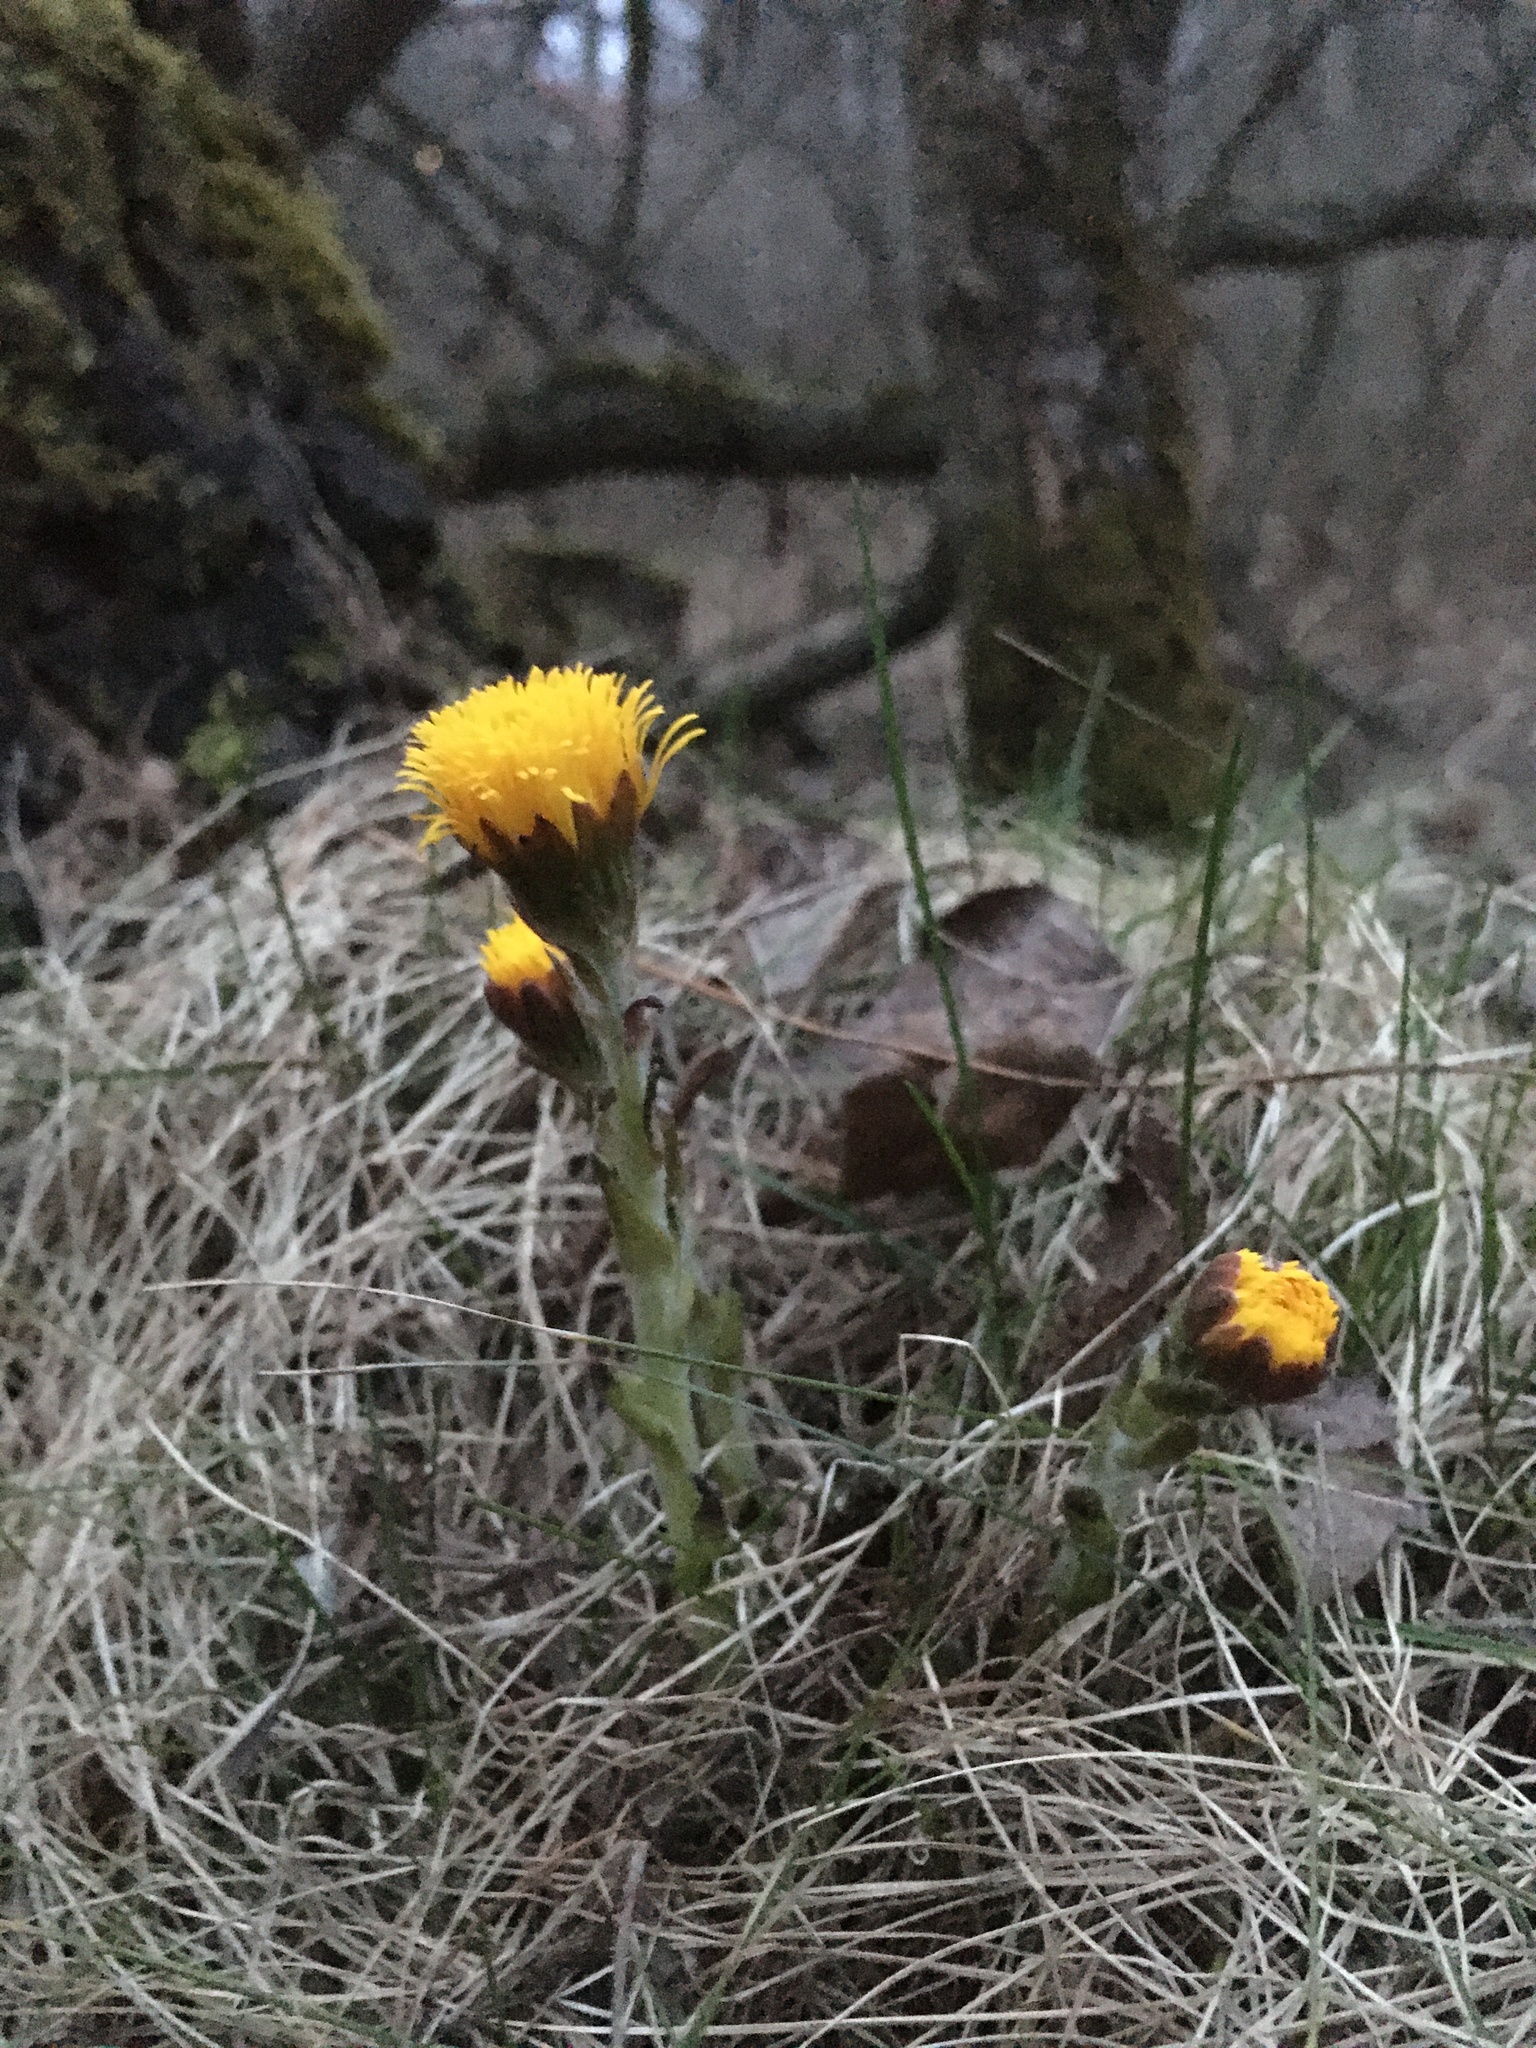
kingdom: Plantae
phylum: Tracheophyta
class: Magnoliopsida
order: Asterales
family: Asteraceae
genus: Tussilago
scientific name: Tussilago farfara
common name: Coltsfoot
